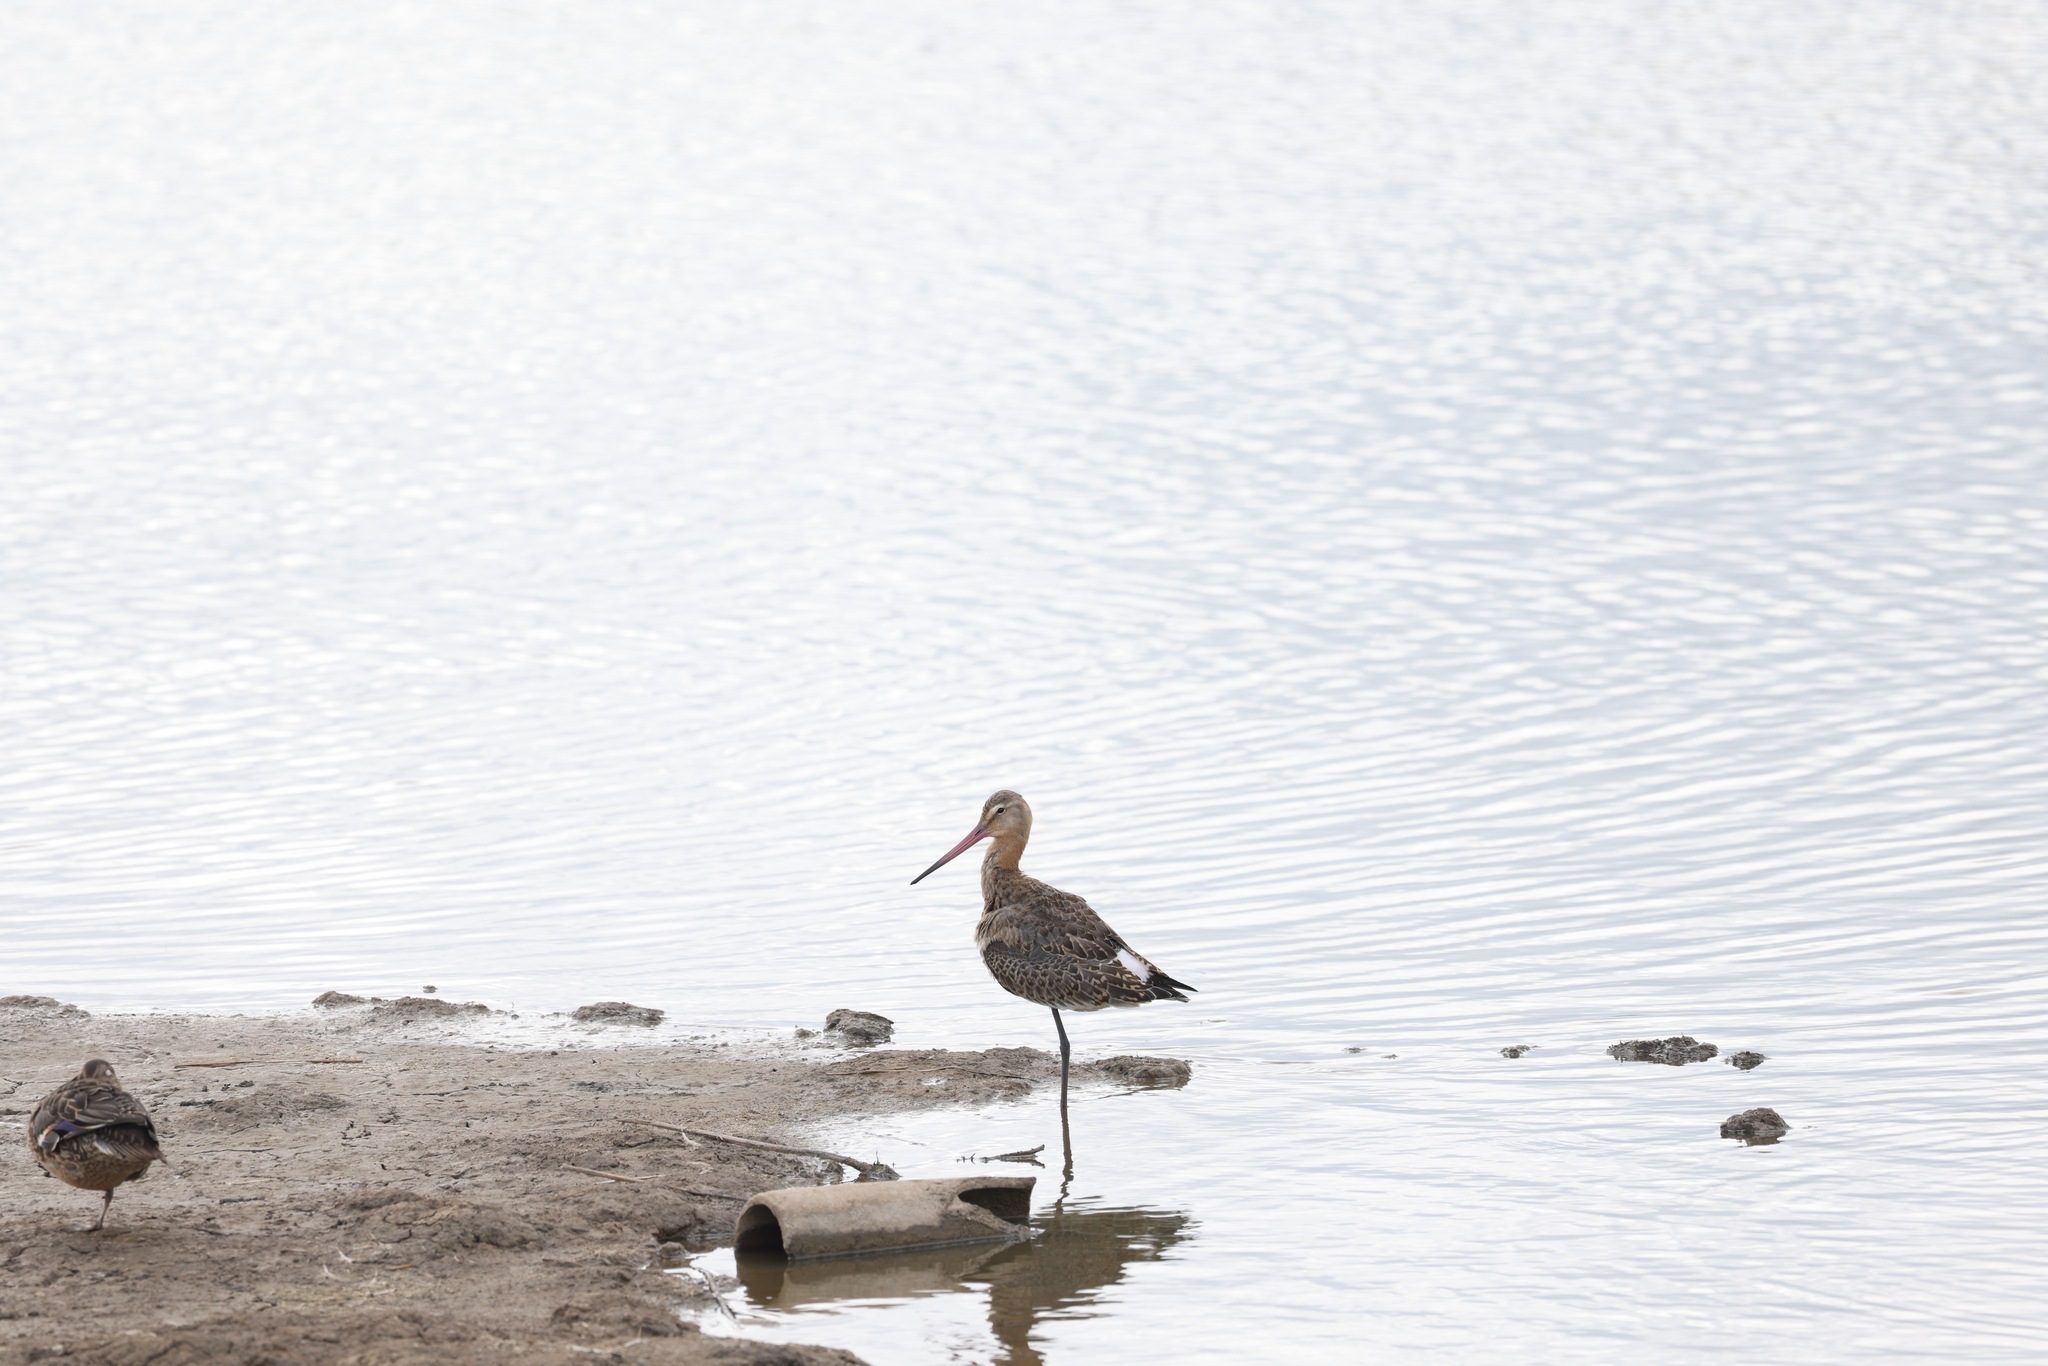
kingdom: Animalia
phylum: Chordata
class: Aves
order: Charadriiformes
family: Scolopacidae
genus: Limosa
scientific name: Limosa limosa
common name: Black-tailed godwit
